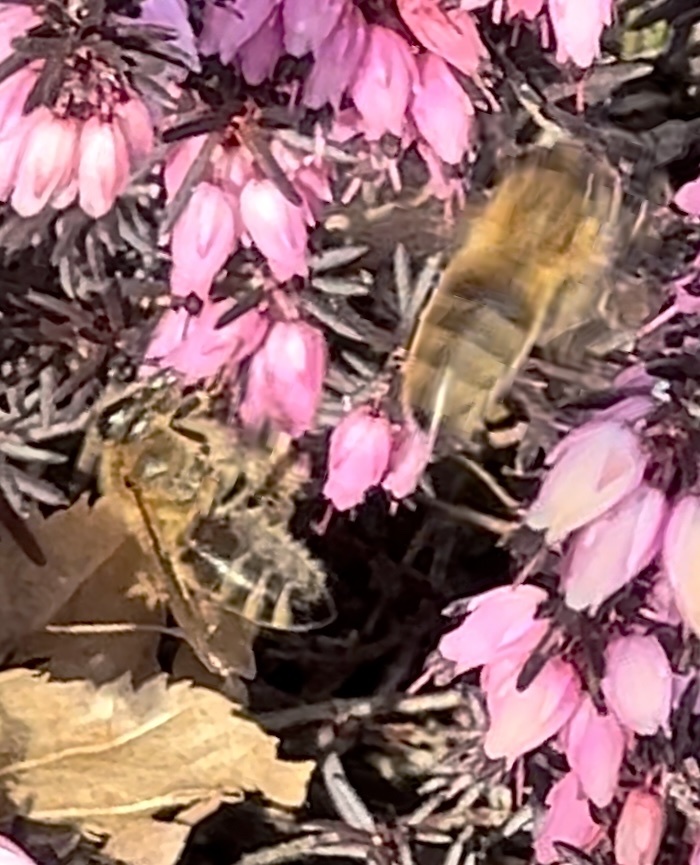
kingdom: Animalia
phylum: Arthropoda
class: Insecta
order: Hymenoptera
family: Apidae
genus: Apis
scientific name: Apis mellifera
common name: Honey bee
